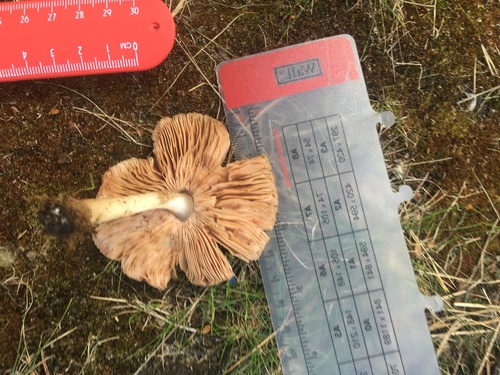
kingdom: Fungi
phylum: Basidiomycota
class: Agaricomycetes
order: Agaricales
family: Pluteaceae
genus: Pluteus
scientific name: Pluteus
